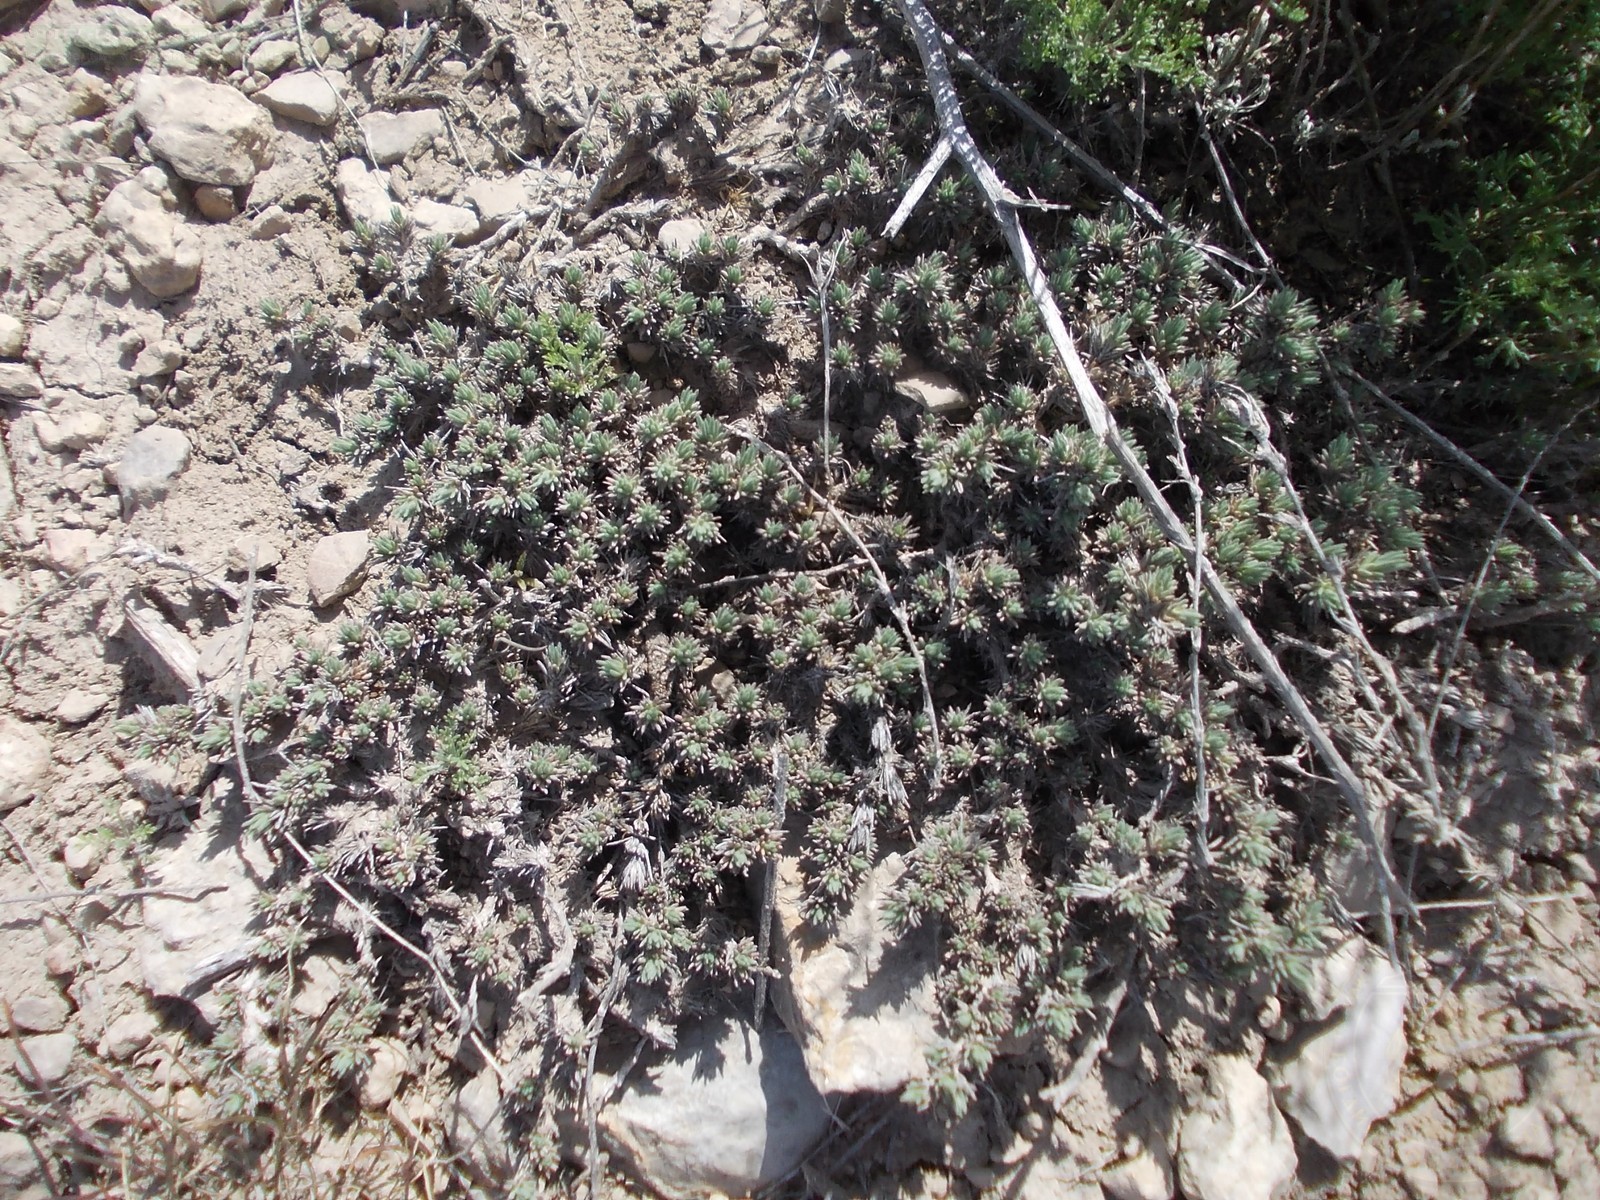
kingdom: Plantae
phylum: Tracheophyta
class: Magnoliopsida
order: Caryophyllales
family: Amaranthaceae
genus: Camphorosma
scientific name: Camphorosma monspeliaca
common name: Camphorfume
